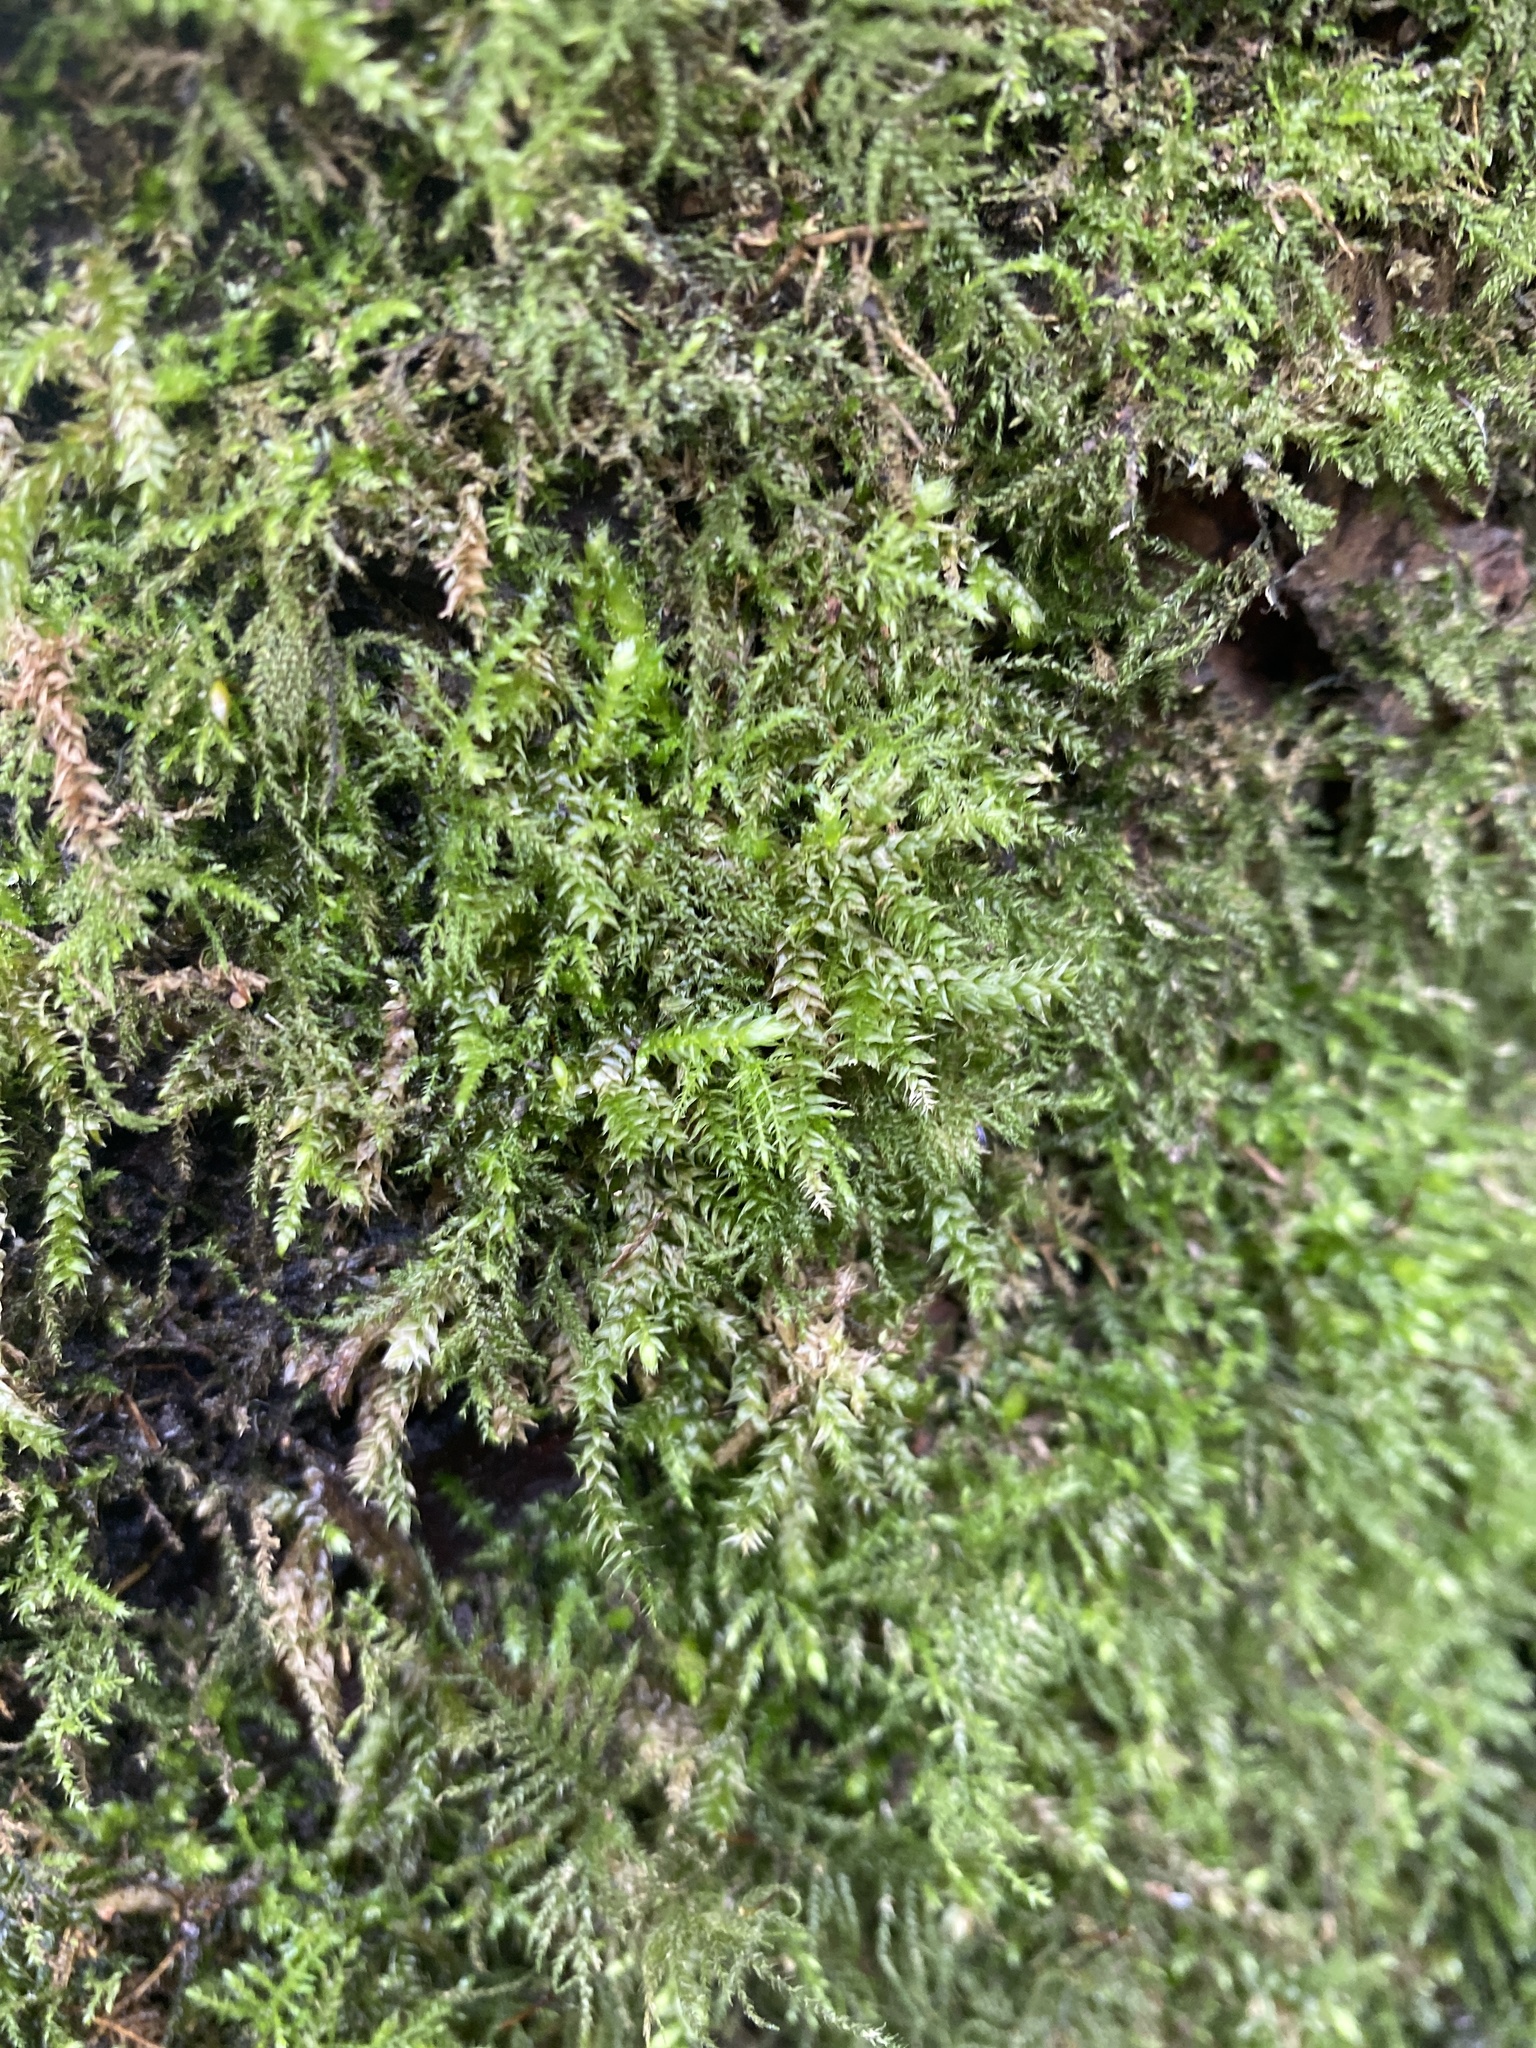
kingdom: Plantae
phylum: Bryophyta
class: Bryopsida
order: Hypnales
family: Brachytheciaceae
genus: Rhynchostegium
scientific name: Rhynchostegium riparioides
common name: Platyhypnidium moss
